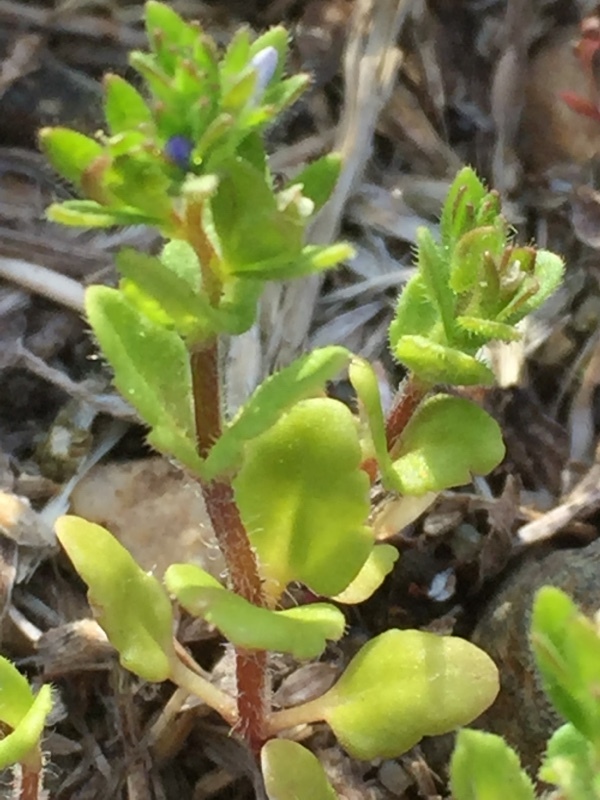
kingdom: Plantae
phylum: Tracheophyta
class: Magnoliopsida
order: Lamiales
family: Plantaginaceae
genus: Veronica
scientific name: Veronica arvensis
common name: Corn speedwell
